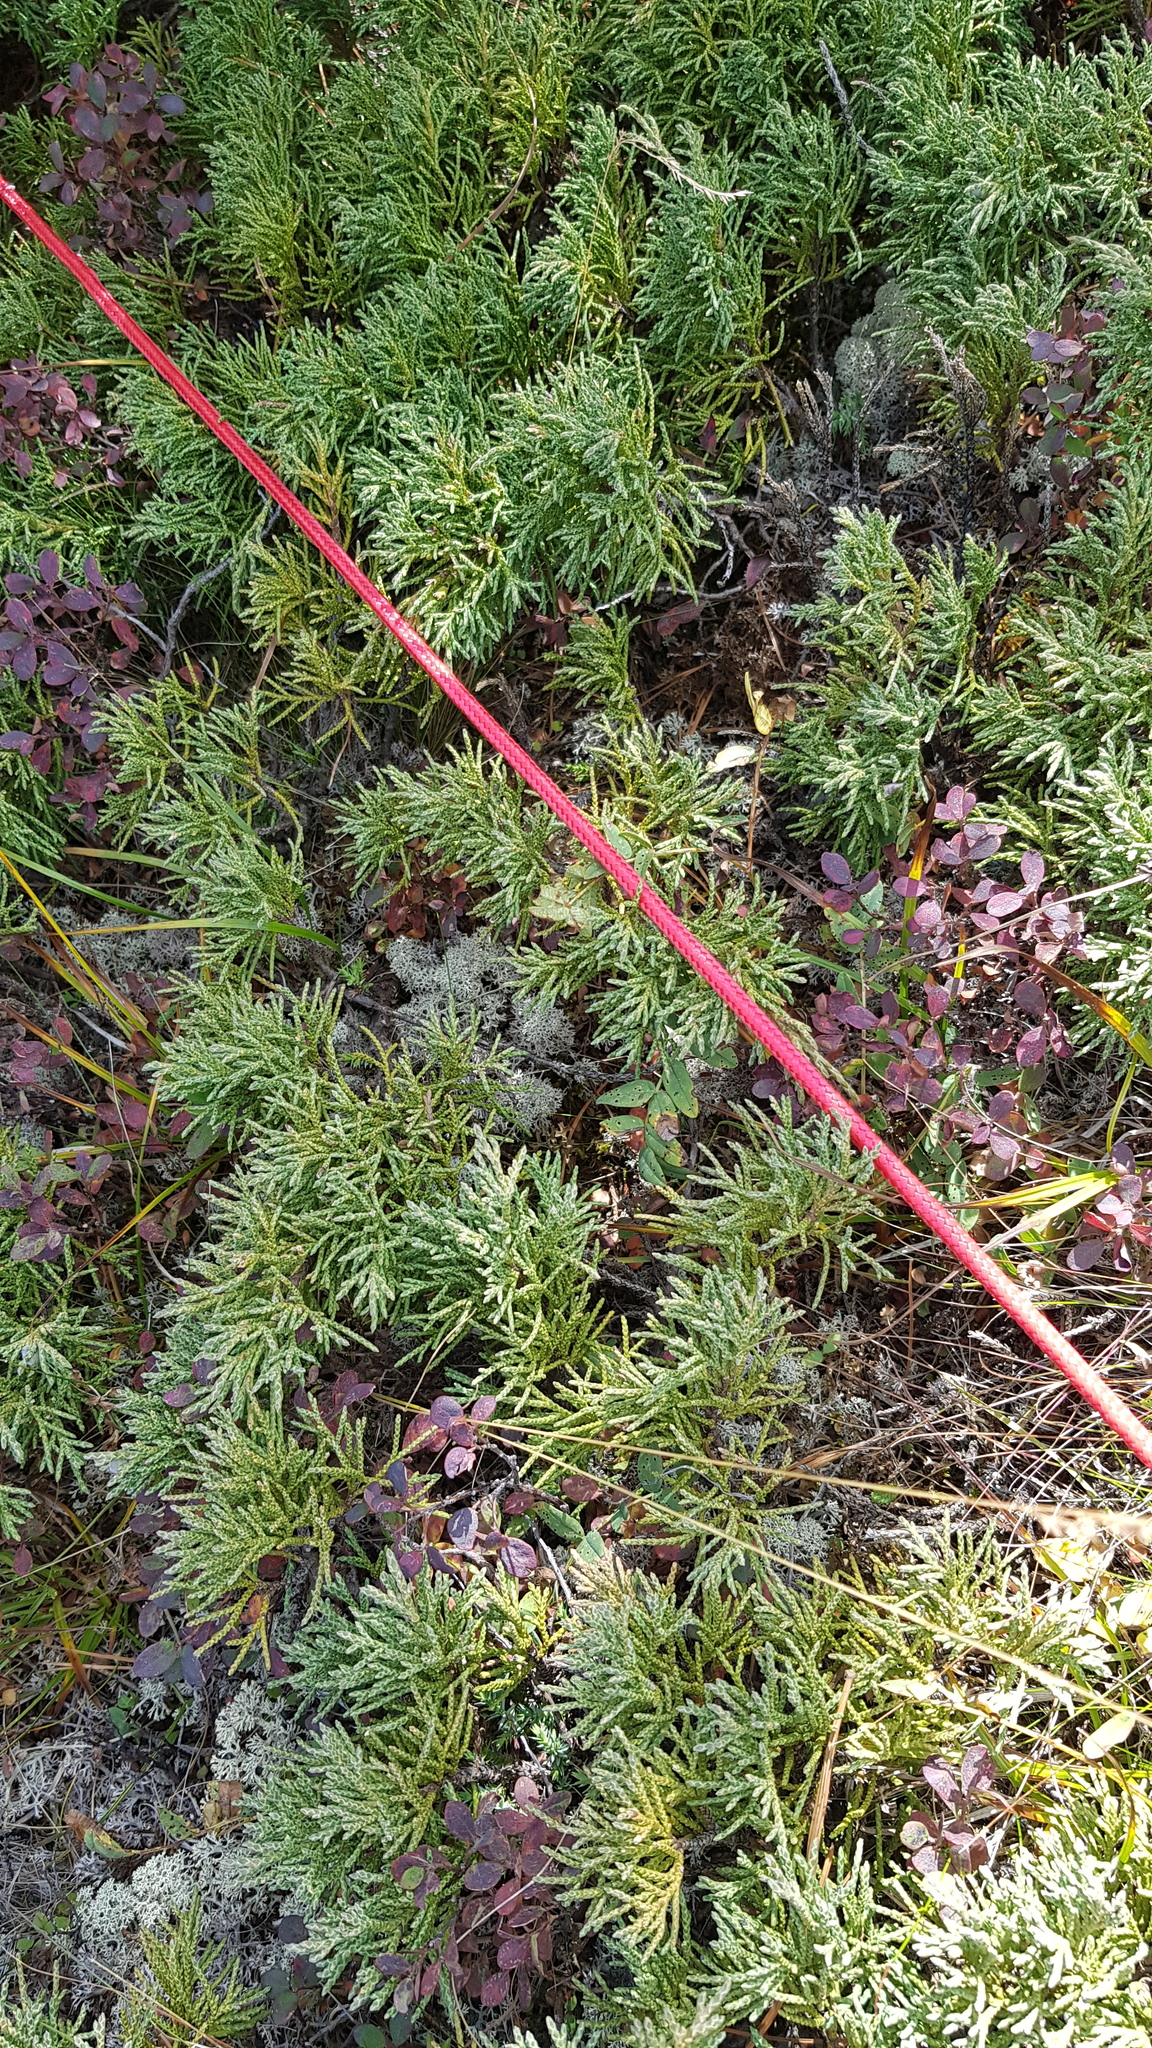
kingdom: Plantae
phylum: Tracheophyta
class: Pinopsida
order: Pinales
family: Cupressaceae
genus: Juniperus
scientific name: Juniperus sabina
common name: Savin
